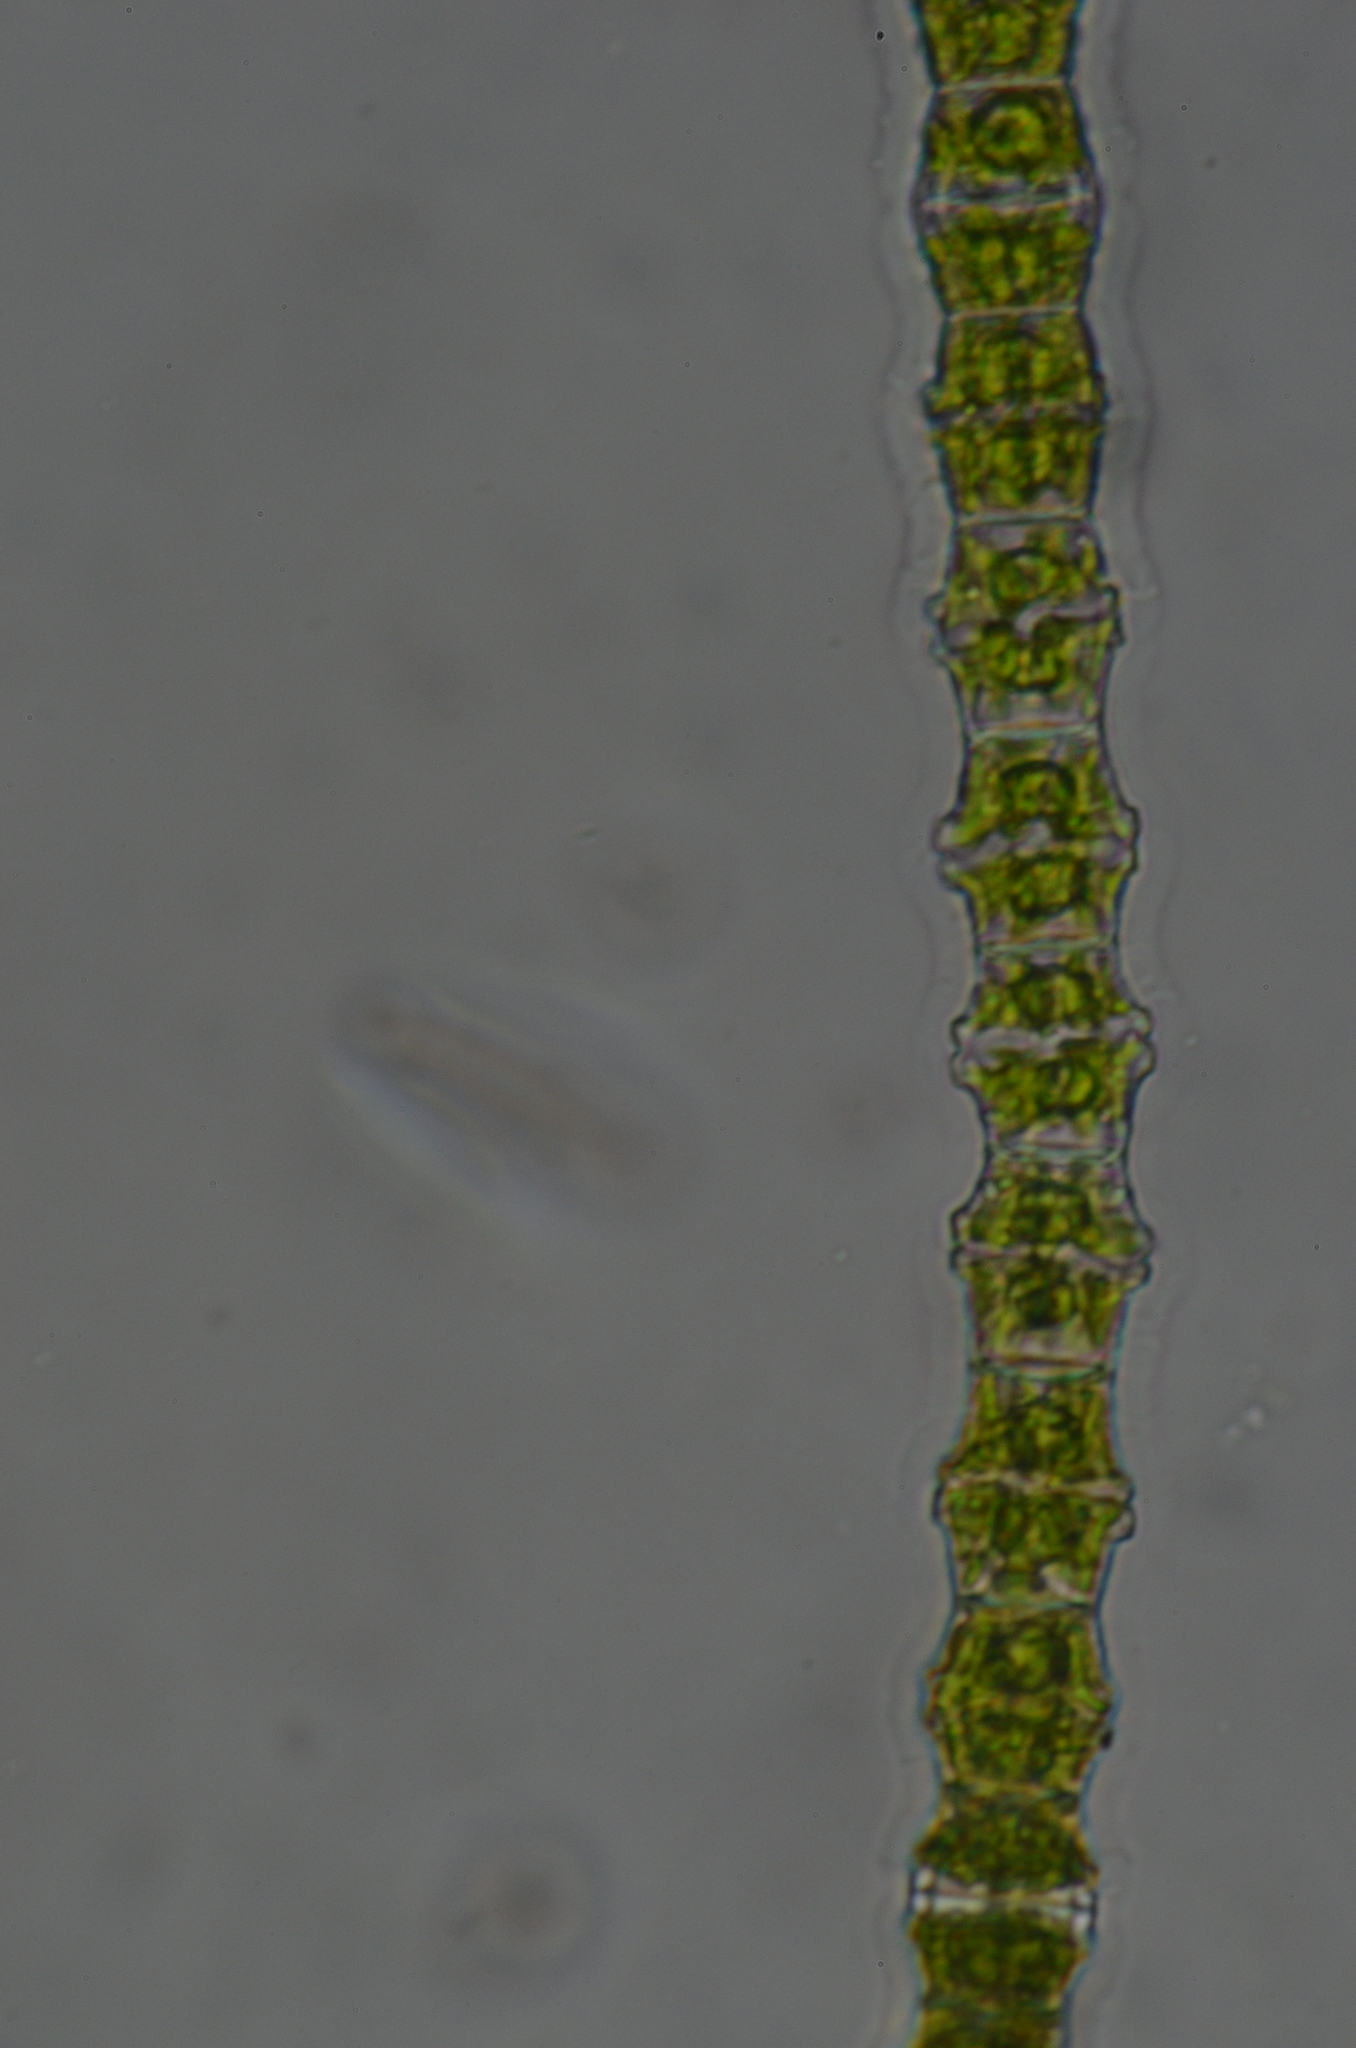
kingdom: Plantae
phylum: Charophyta
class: Conjugatophyceae
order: Desmidiales
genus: Bambusina
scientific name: Bambusina borreri
